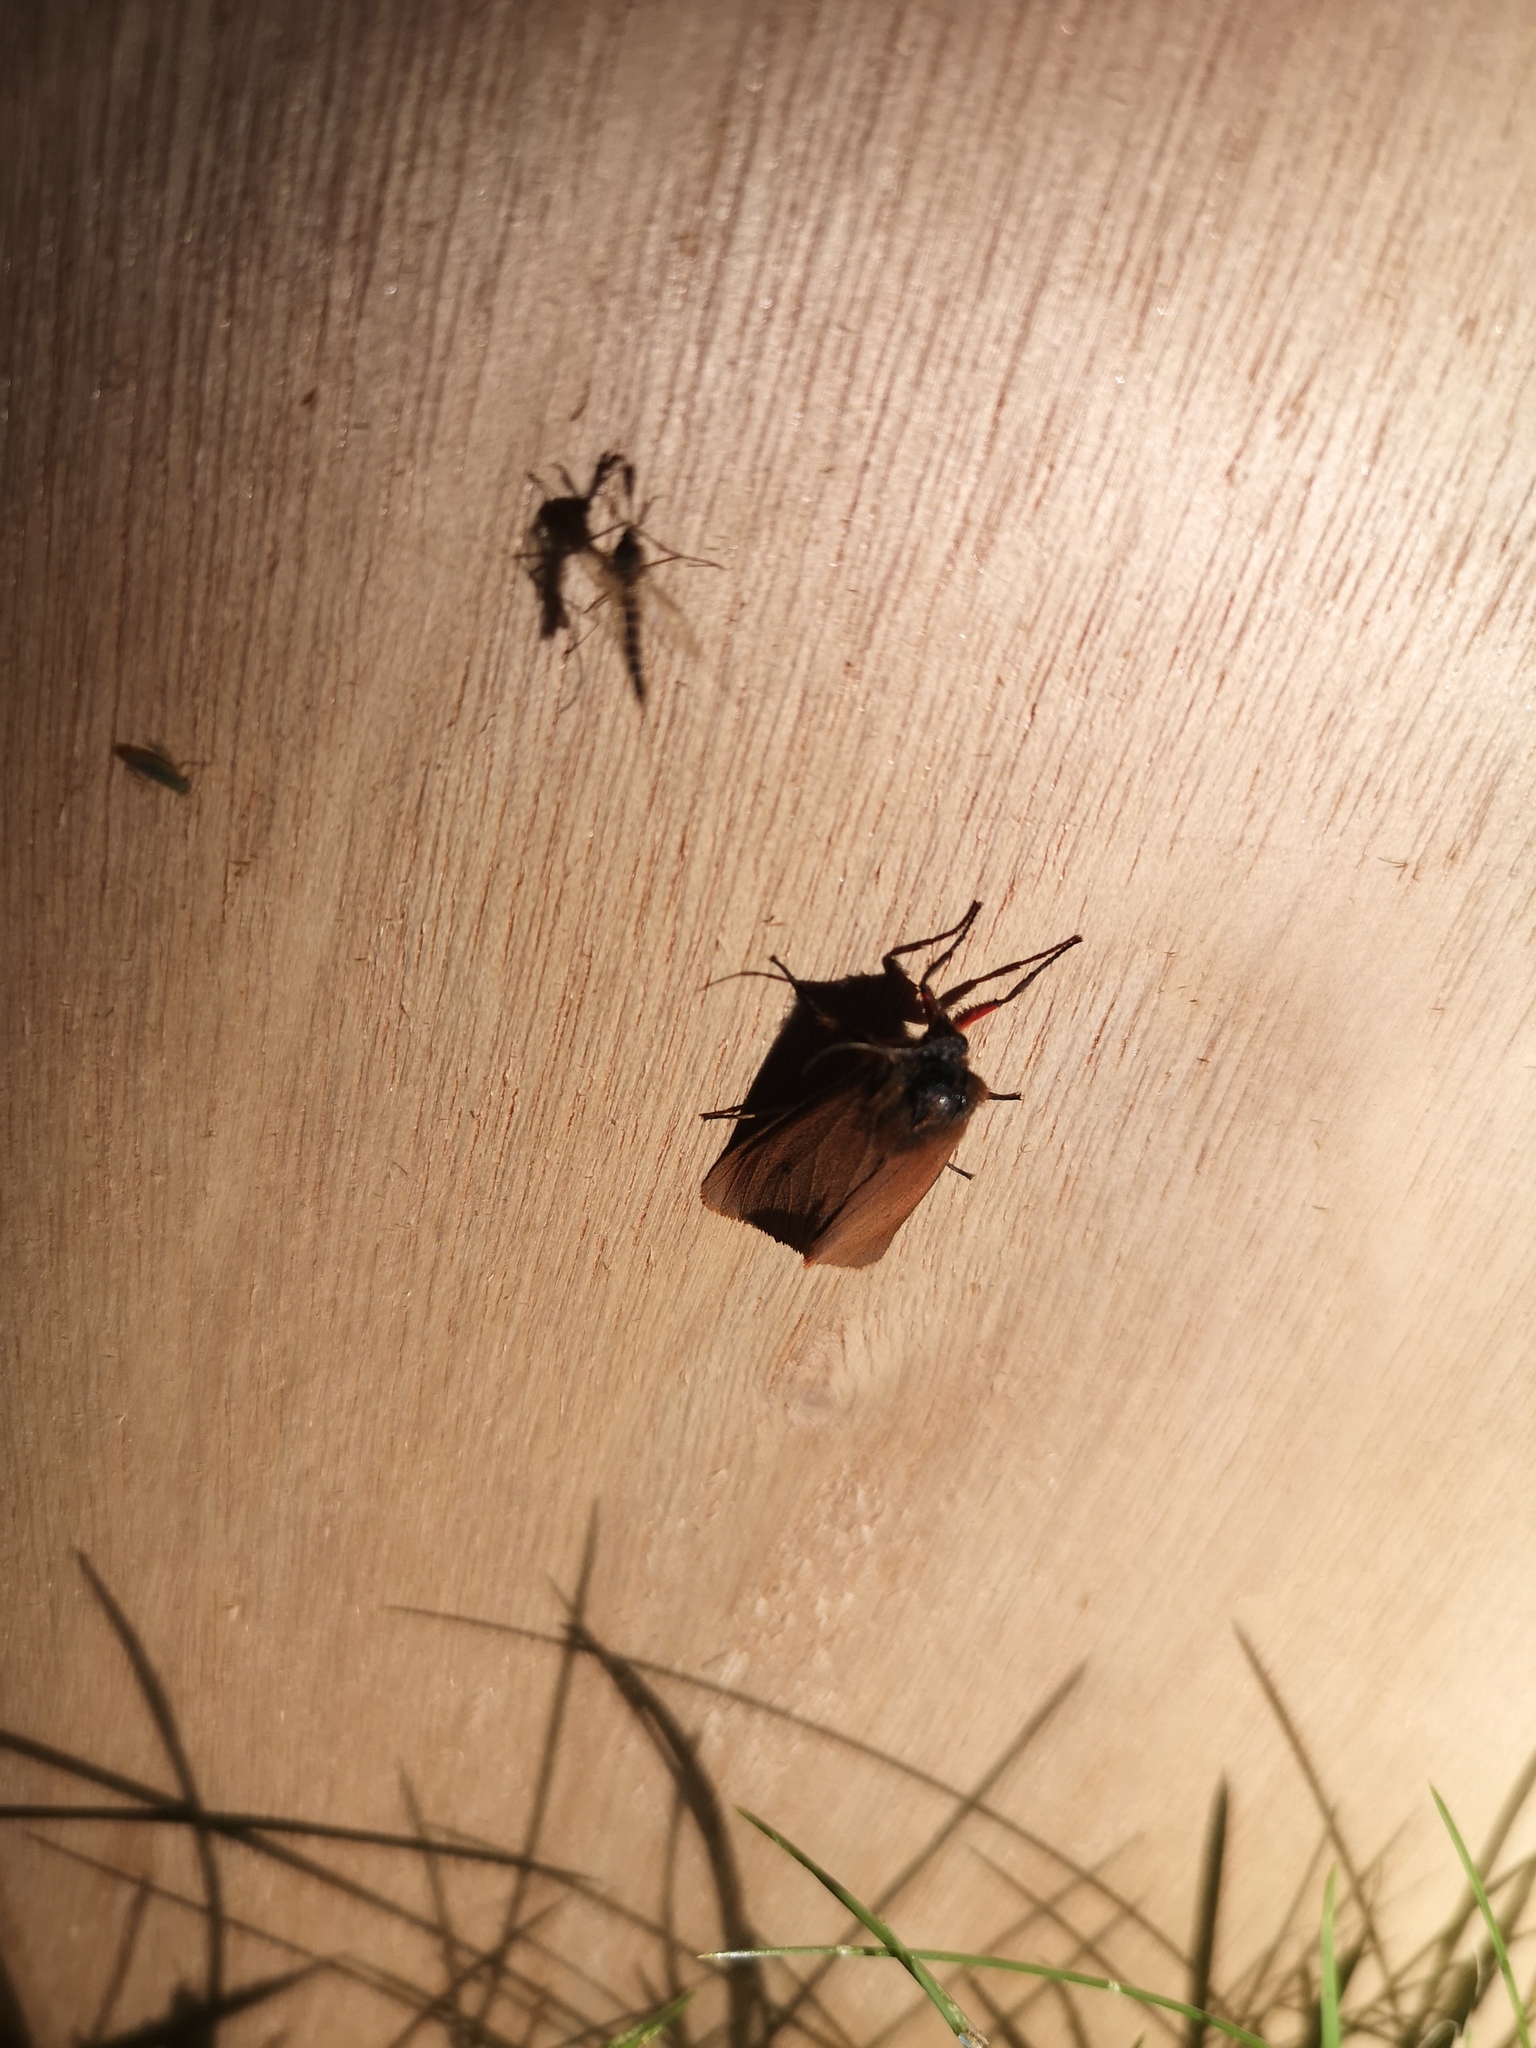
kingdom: Animalia
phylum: Arthropoda
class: Insecta
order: Lepidoptera
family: Erebidae
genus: Phragmatobia
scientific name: Phragmatobia fuliginosa
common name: Ruby tiger
